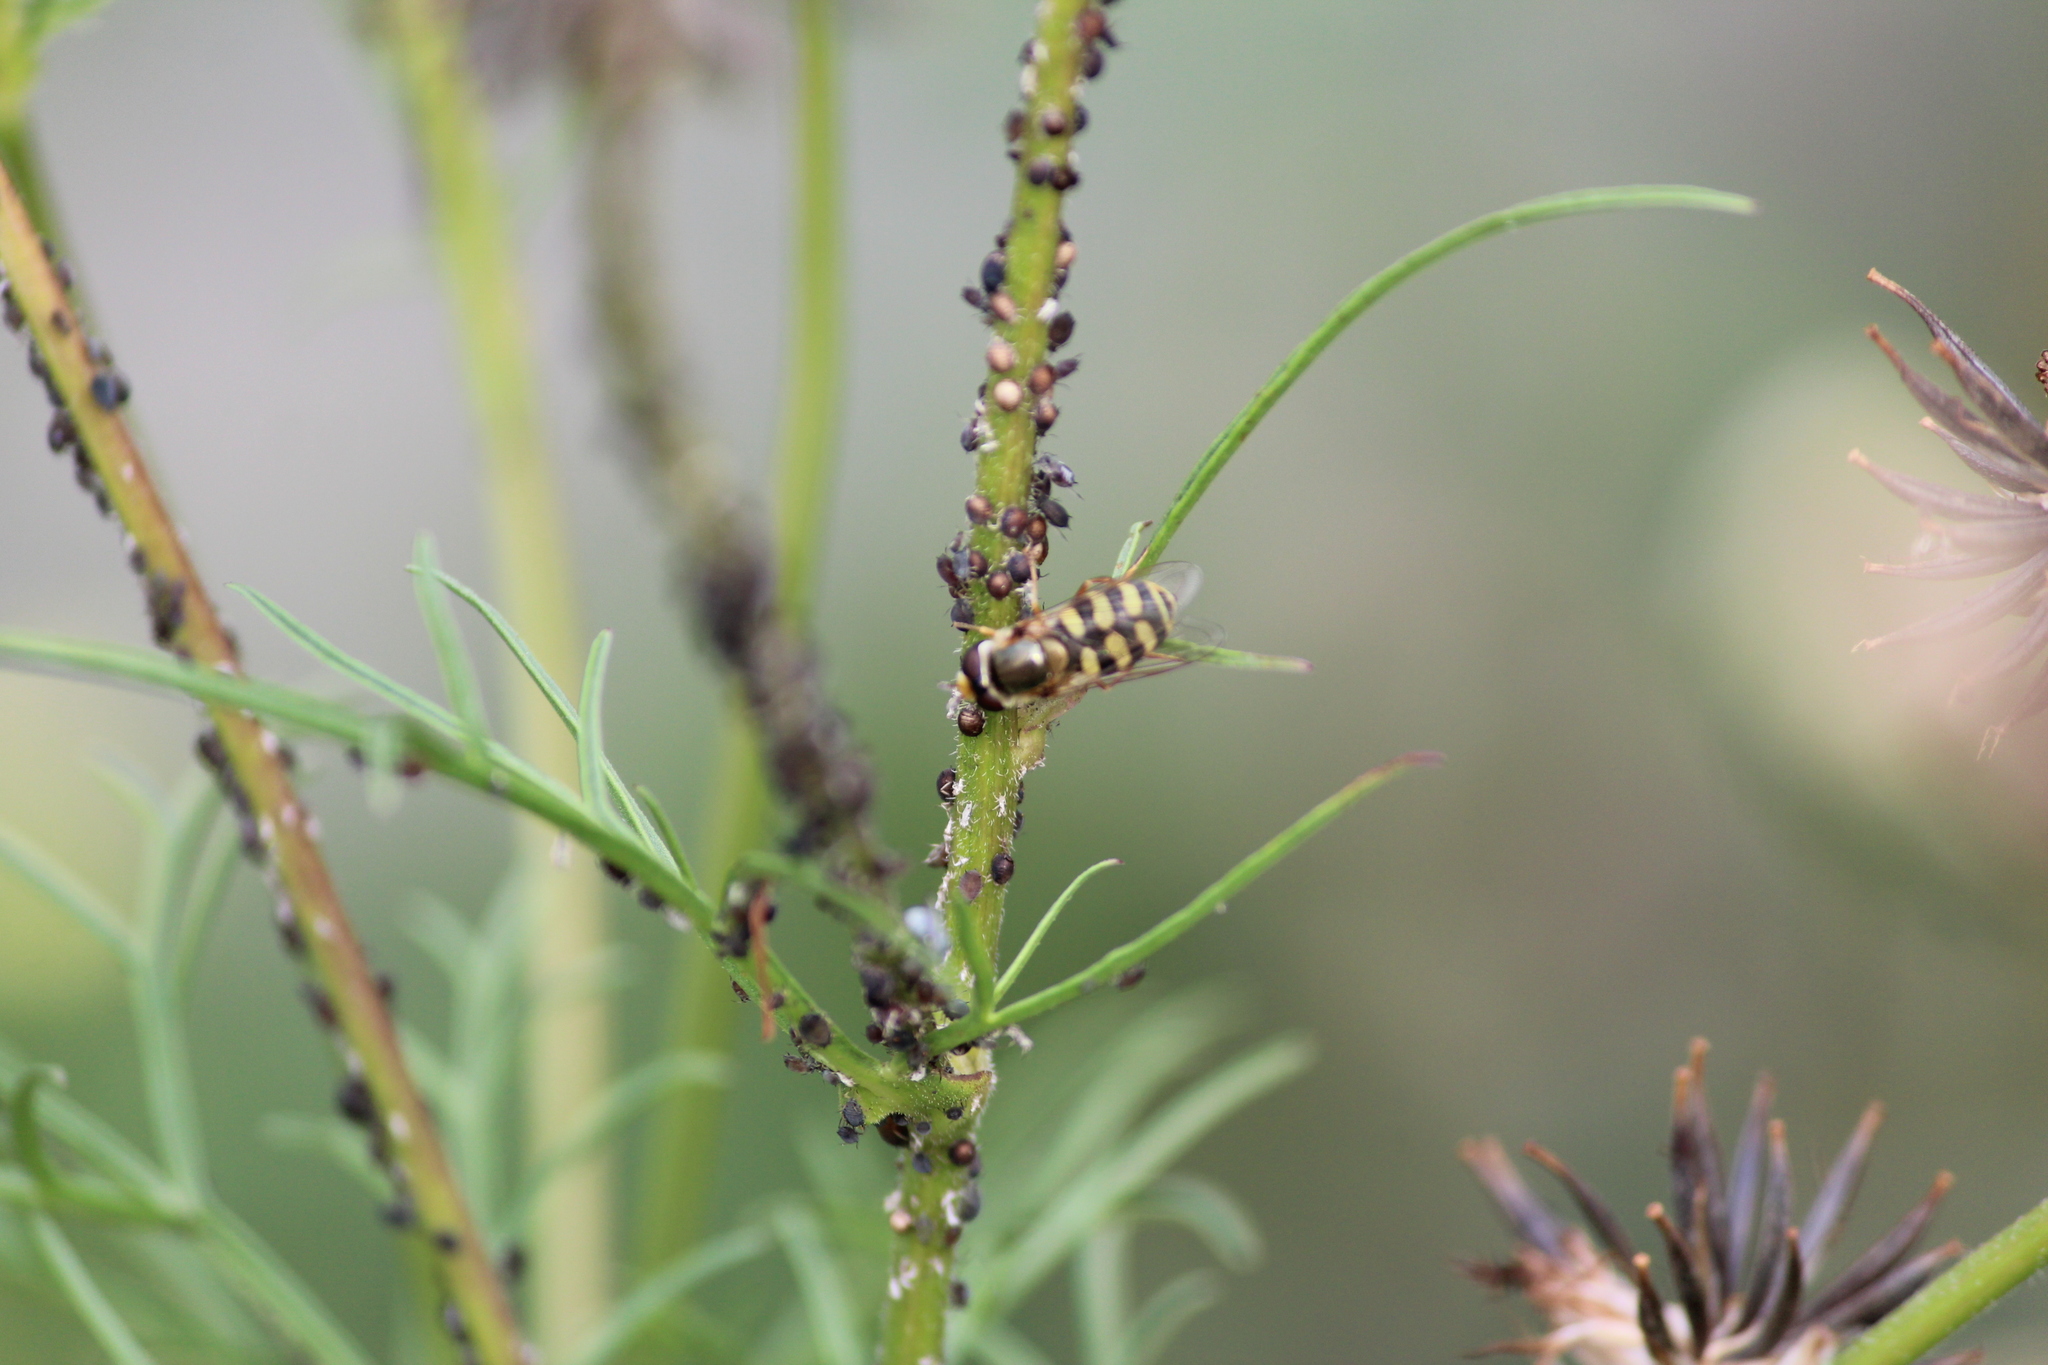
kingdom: Animalia
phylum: Arthropoda
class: Insecta
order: Diptera
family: Syrphidae
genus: Eupeodes
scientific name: Eupeodes corollae
